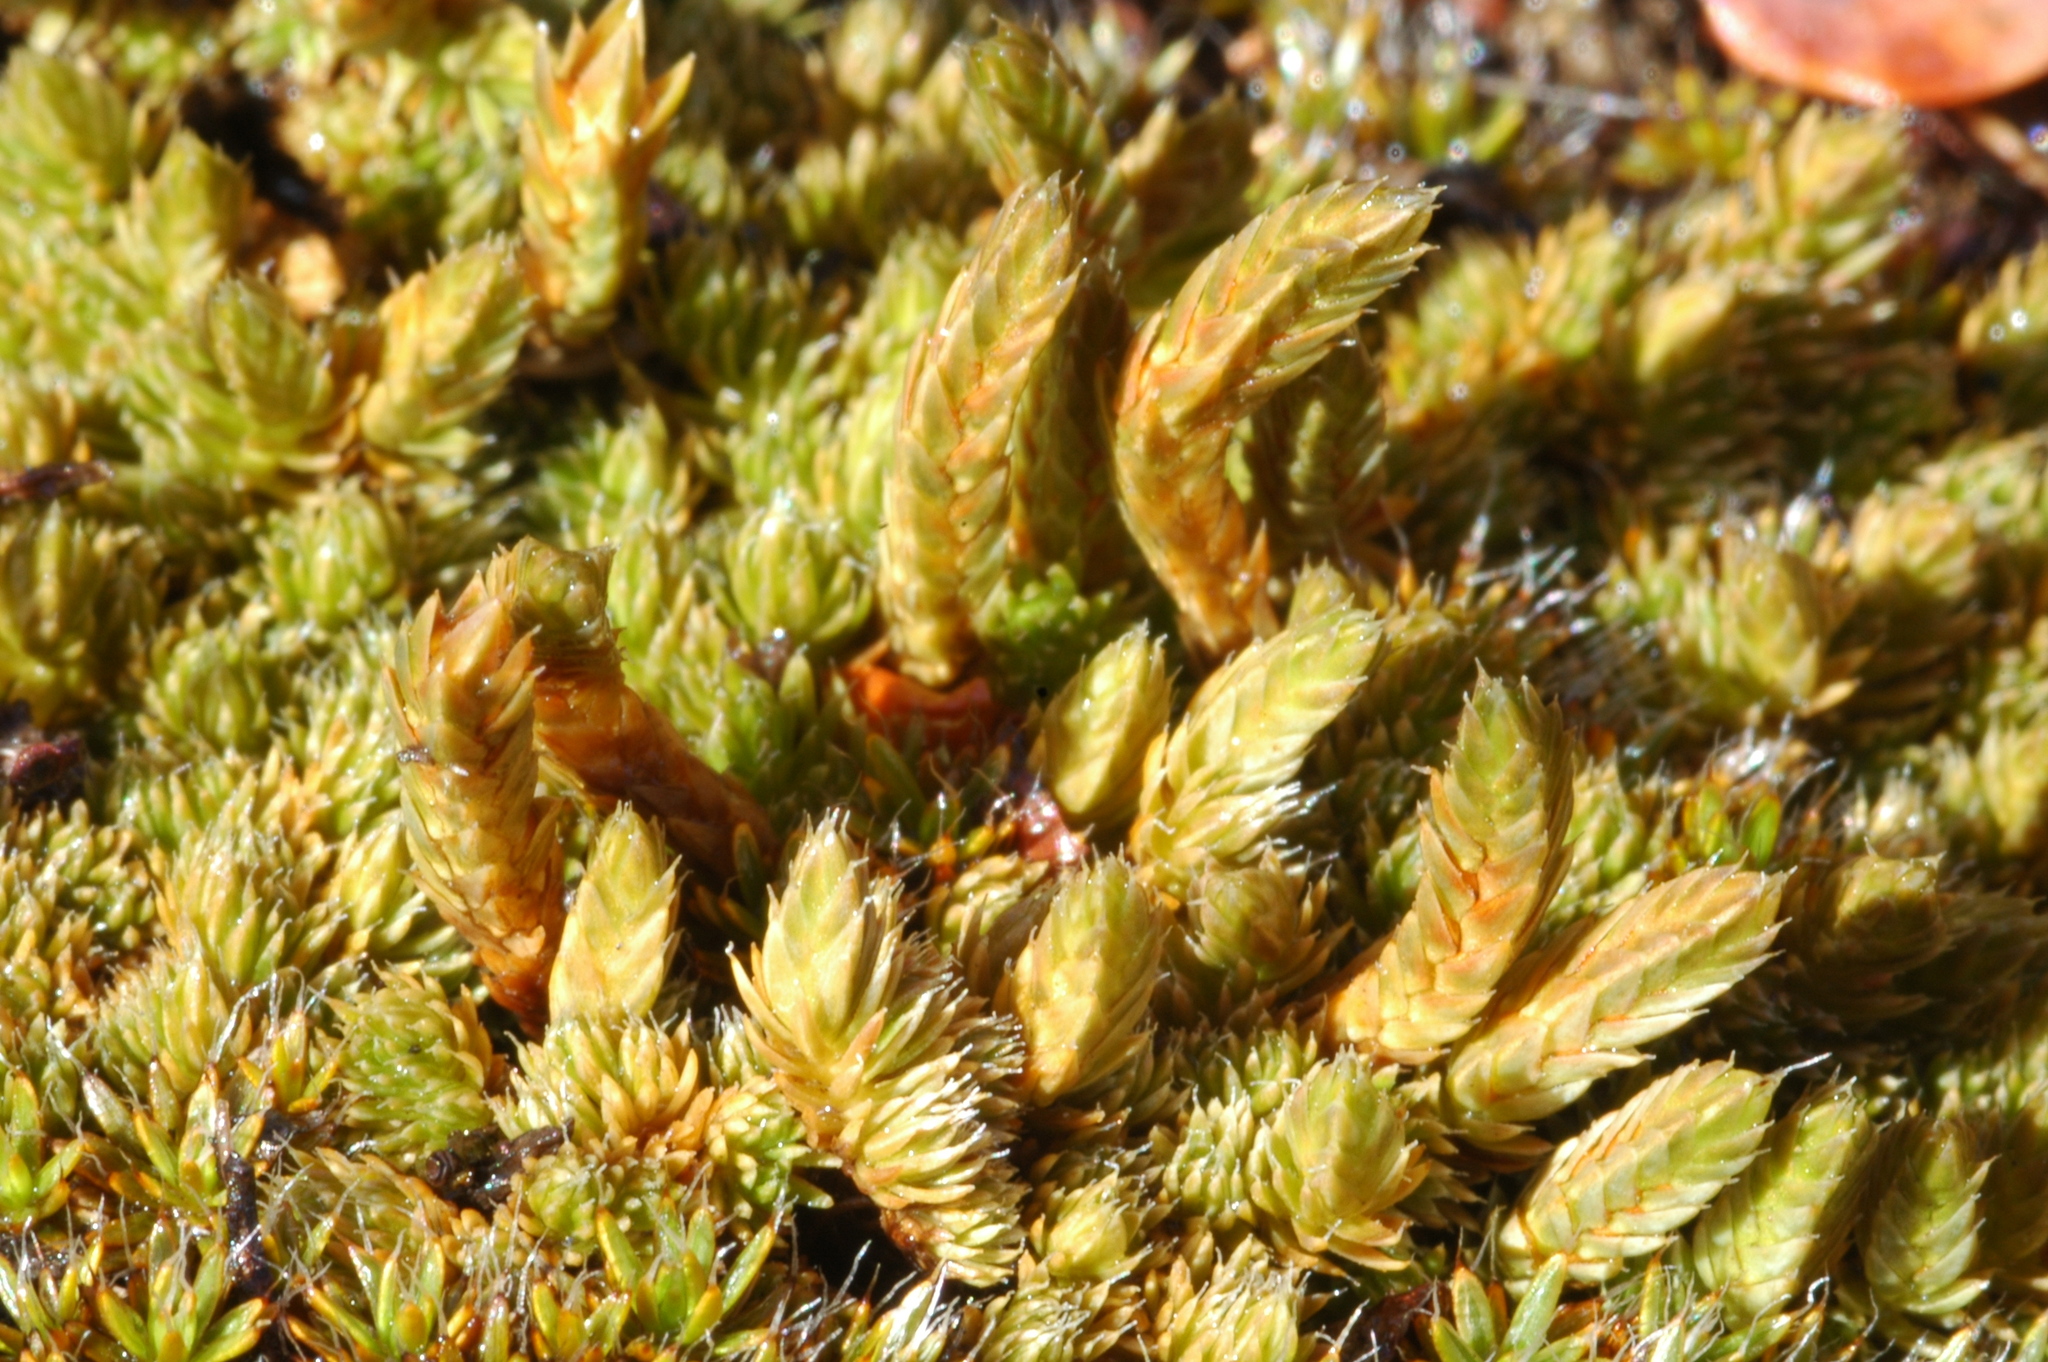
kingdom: Plantae
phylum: Tracheophyta
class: Lycopodiopsida
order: Selaginellales
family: Selaginellaceae
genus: Selaginella
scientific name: Selaginella densa
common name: Mountain spike-moss
